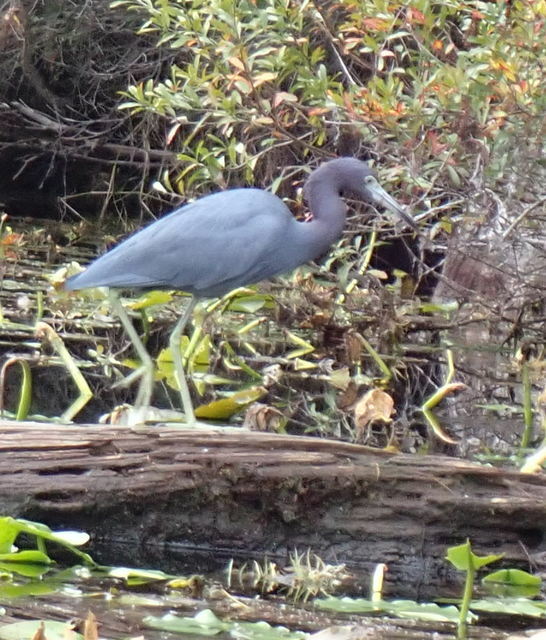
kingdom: Animalia
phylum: Chordata
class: Aves
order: Pelecaniformes
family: Ardeidae
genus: Egretta
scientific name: Egretta caerulea
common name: Little blue heron
